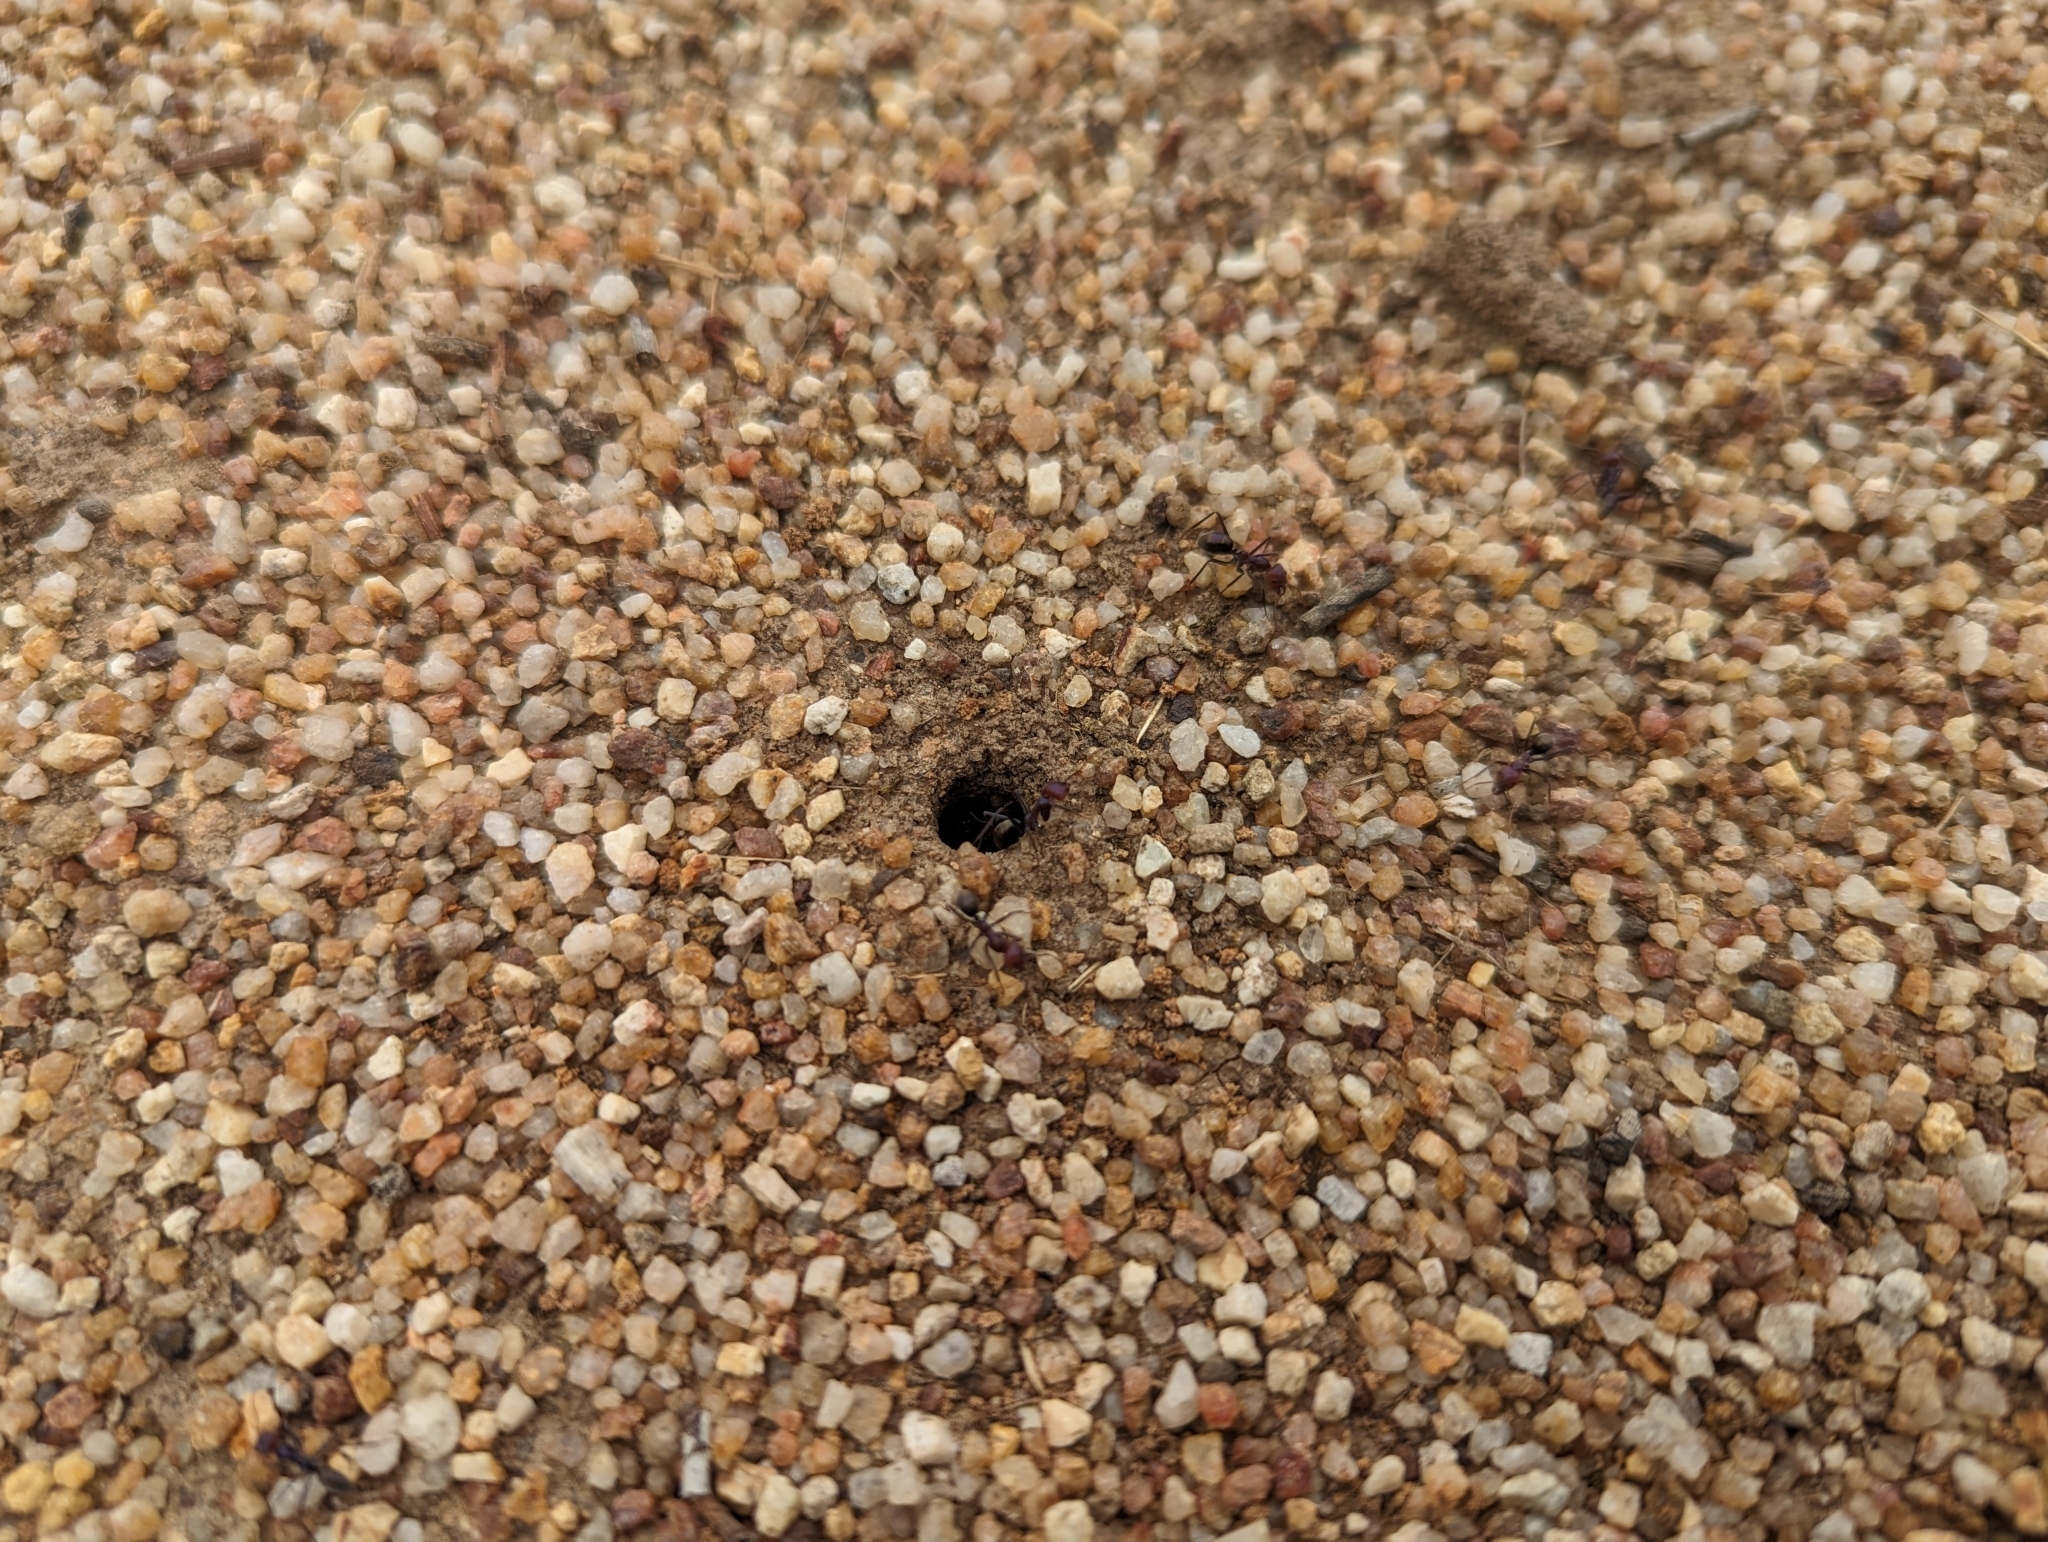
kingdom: Animalia
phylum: Arthropoda
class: Insecta
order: Hymenoptera
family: Formicidae
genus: Iridomyrmex
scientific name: Iridomyrmex purpureus
